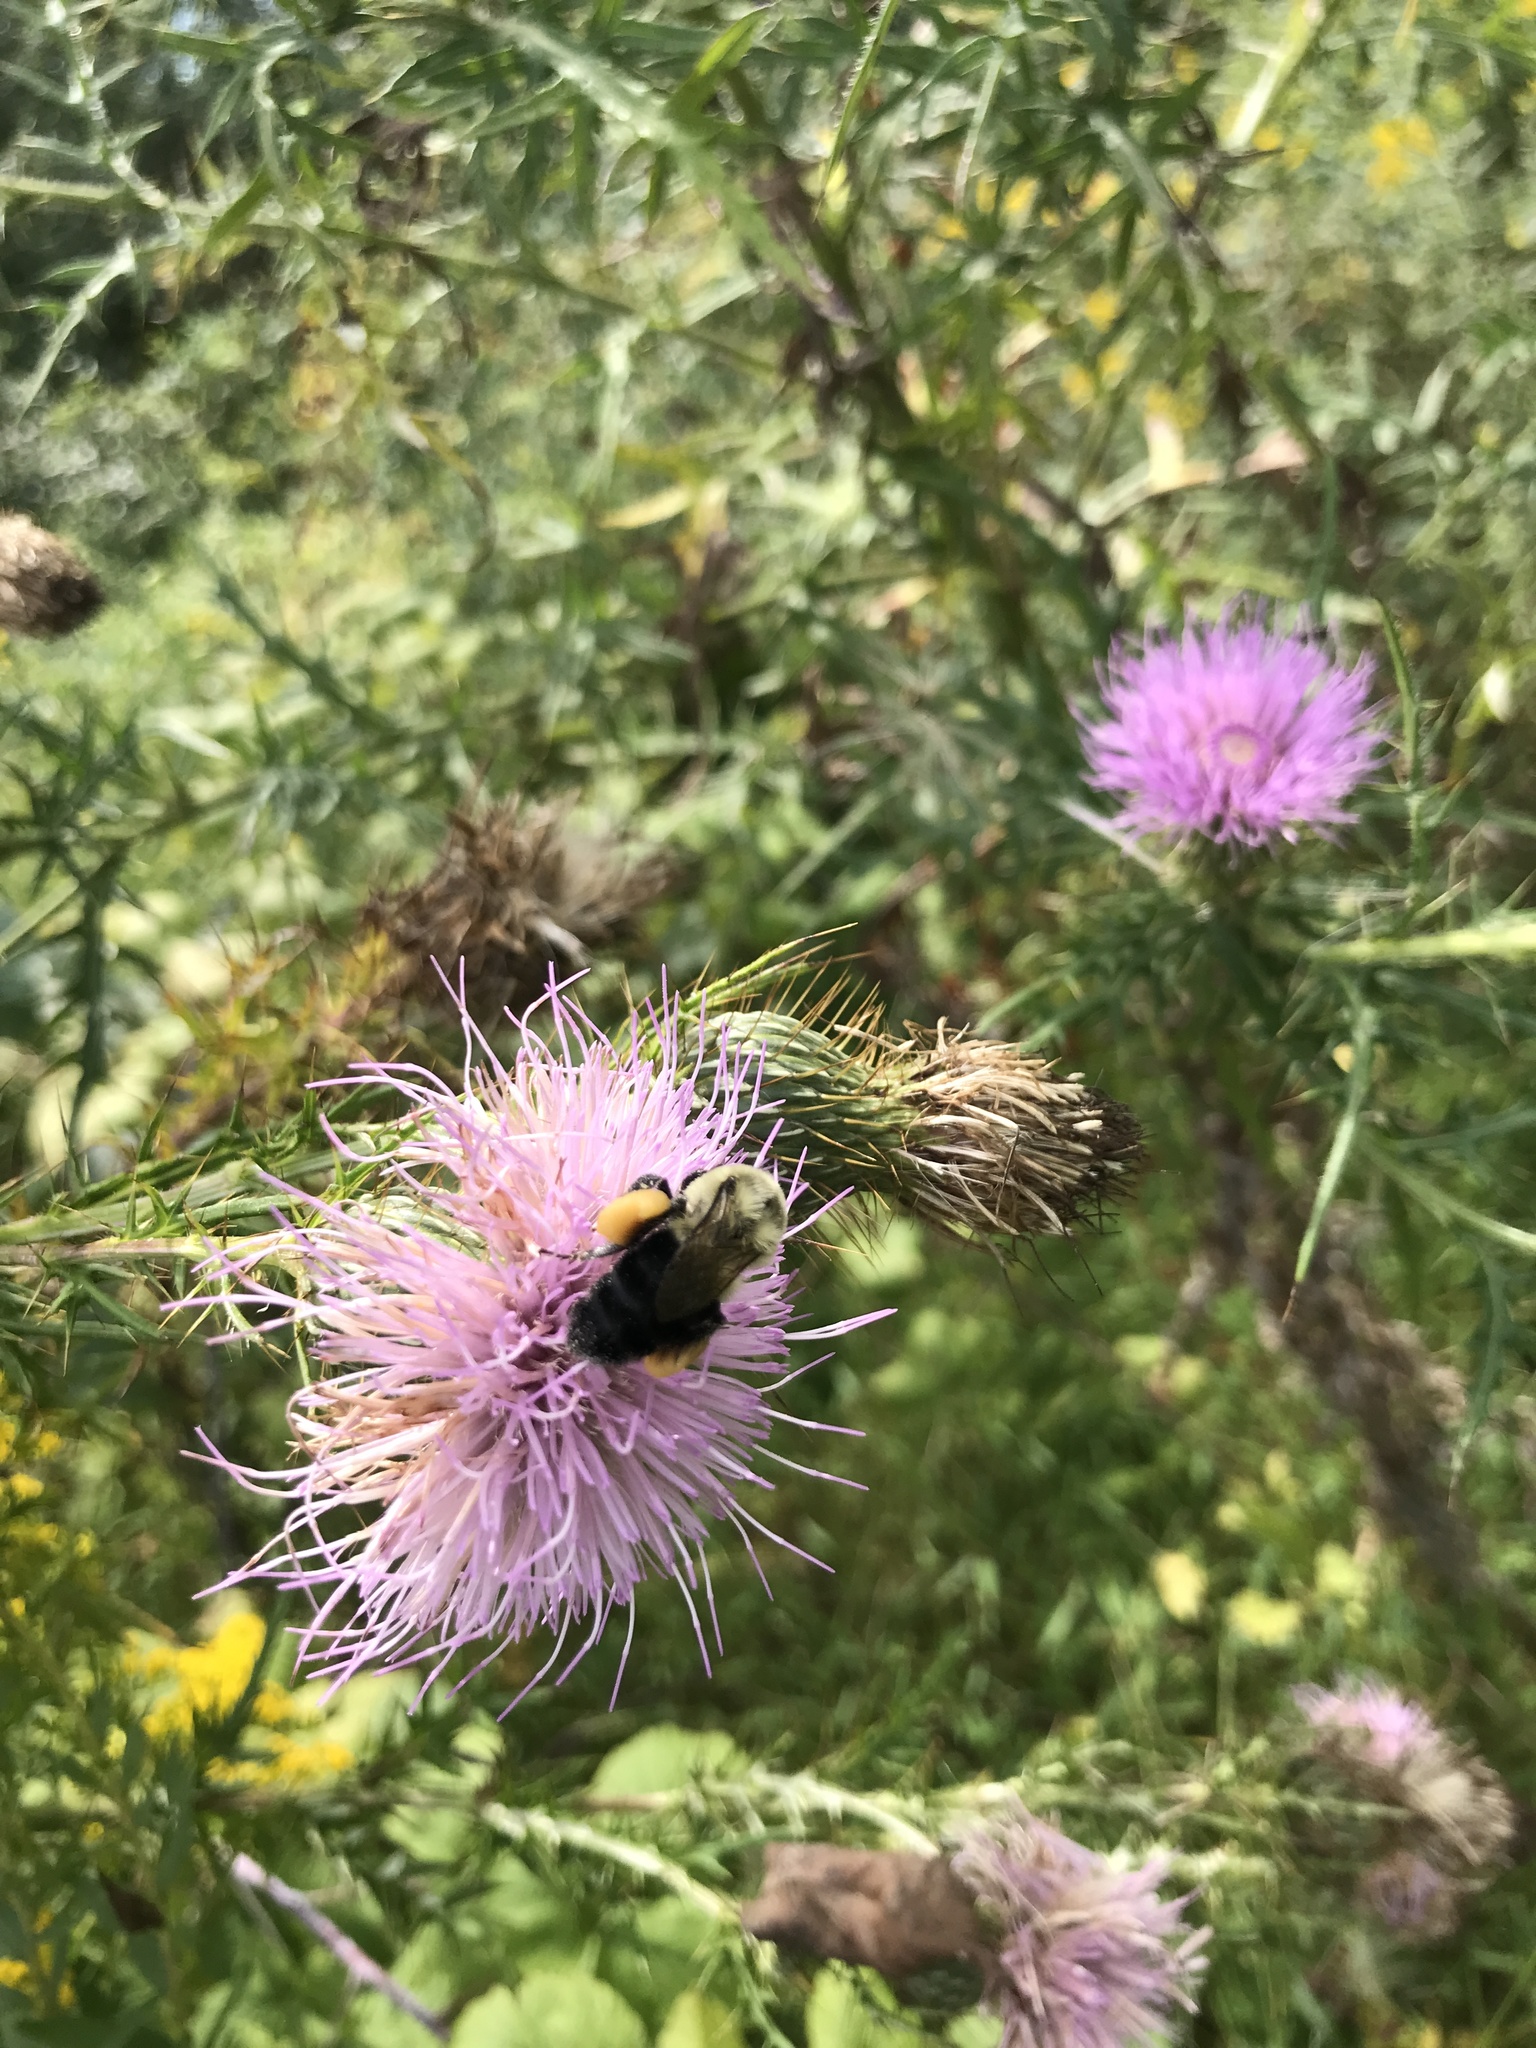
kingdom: Animalia
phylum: Arthropoda
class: Insecta
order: Hymenoptera
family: Apidae
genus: Bombus
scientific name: Bombus impatiens
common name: Common eastern bumble bee
